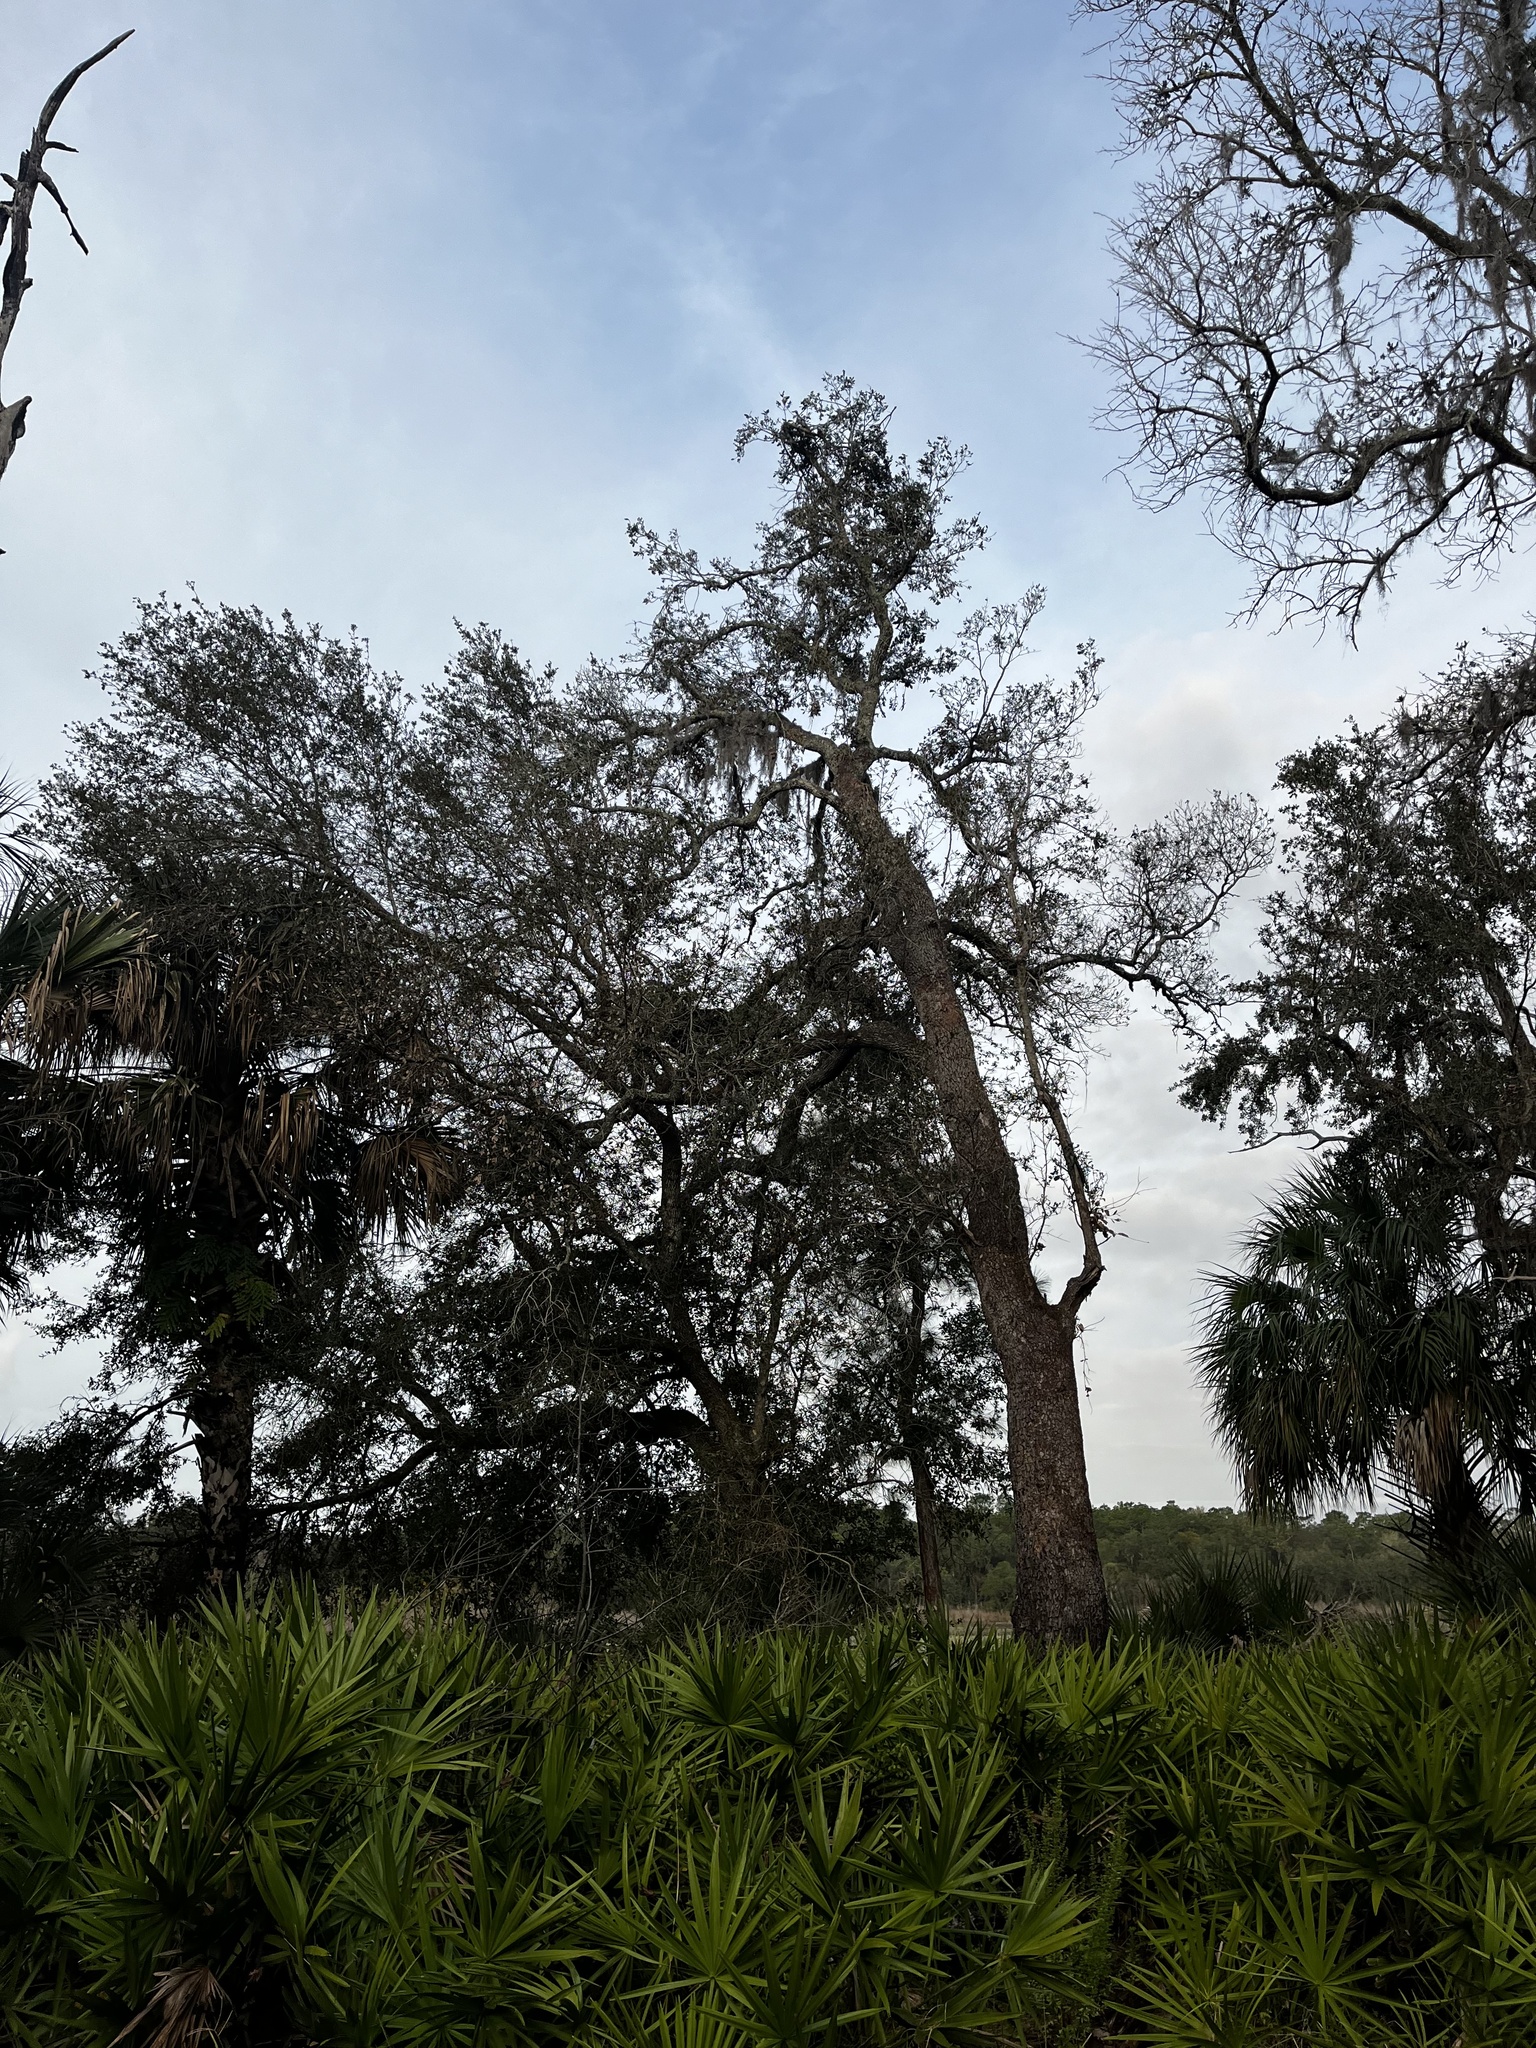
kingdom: Animalia
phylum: Chordata
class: Mammalia
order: Carnivora
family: Ursidae
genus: Ursus
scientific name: Ursus americanus
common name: American black bear
